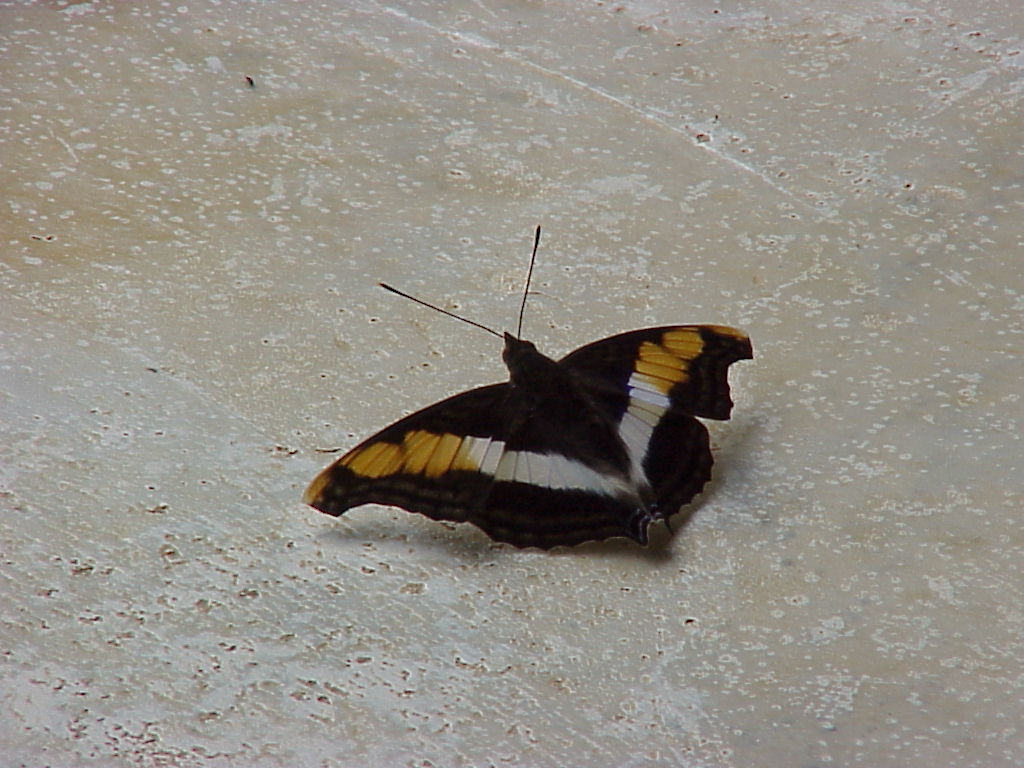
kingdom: Animalia
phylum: Arthropoda
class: Insecta
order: Lepidoptera
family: Nymphalidae
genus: Doxocopa
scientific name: Doxocopa laure
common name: Silver emperor
